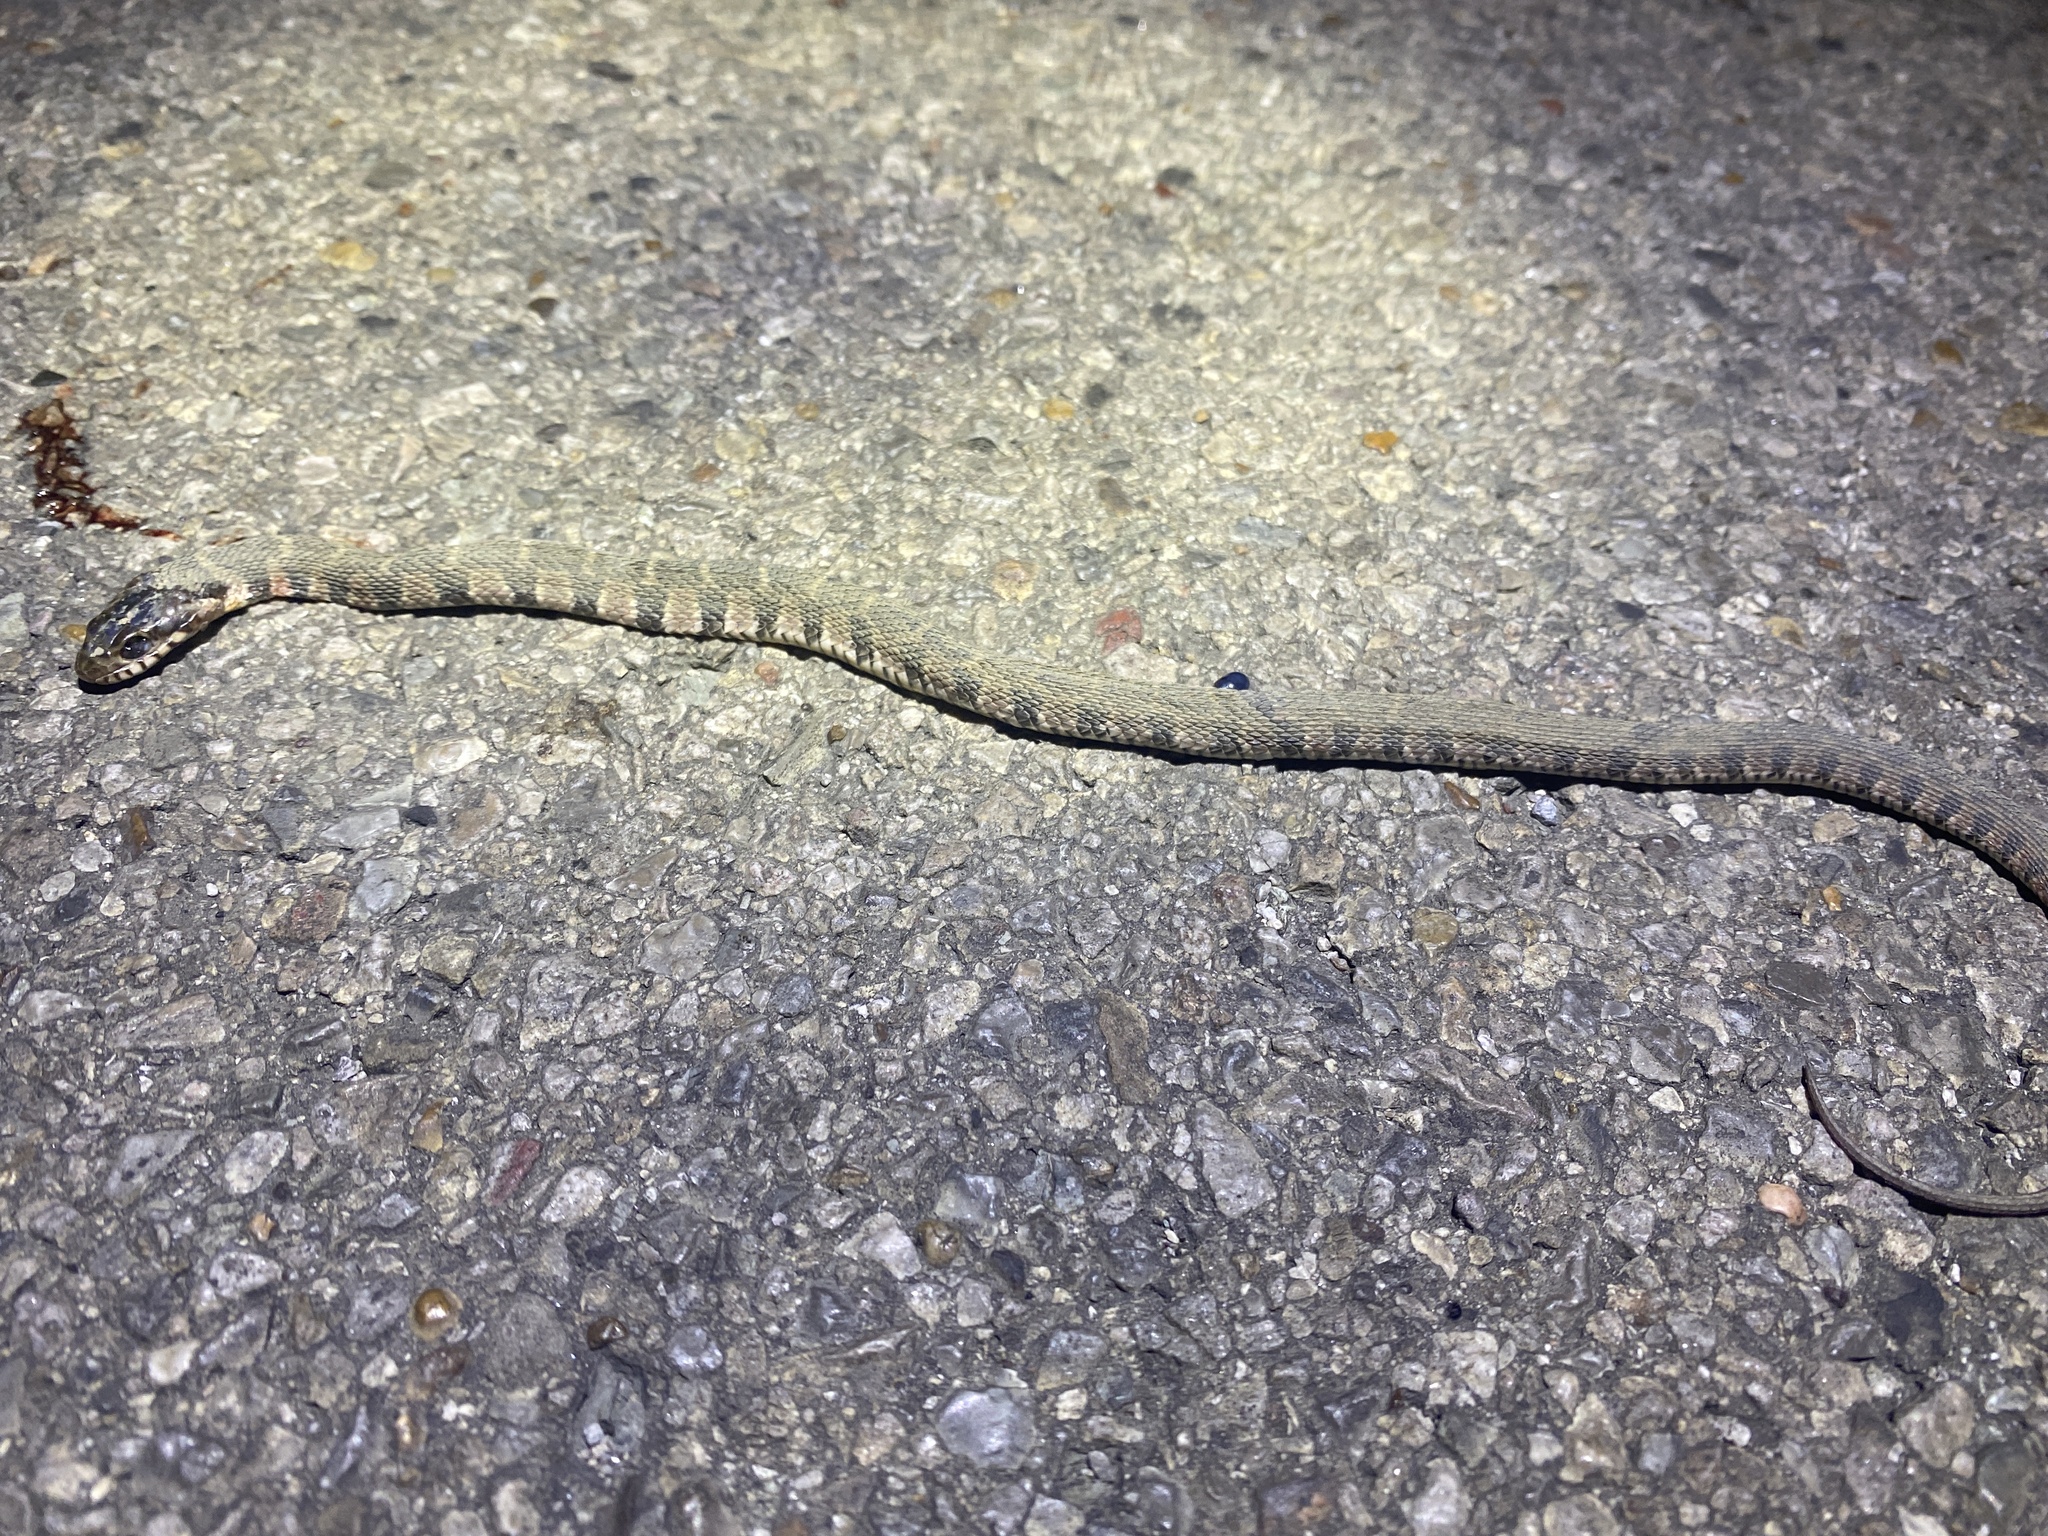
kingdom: Animalia
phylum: Chordata
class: Squamata
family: Colubridae
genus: Nerodia
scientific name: Nerodia erythrogaster
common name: Plainbelly water snake
